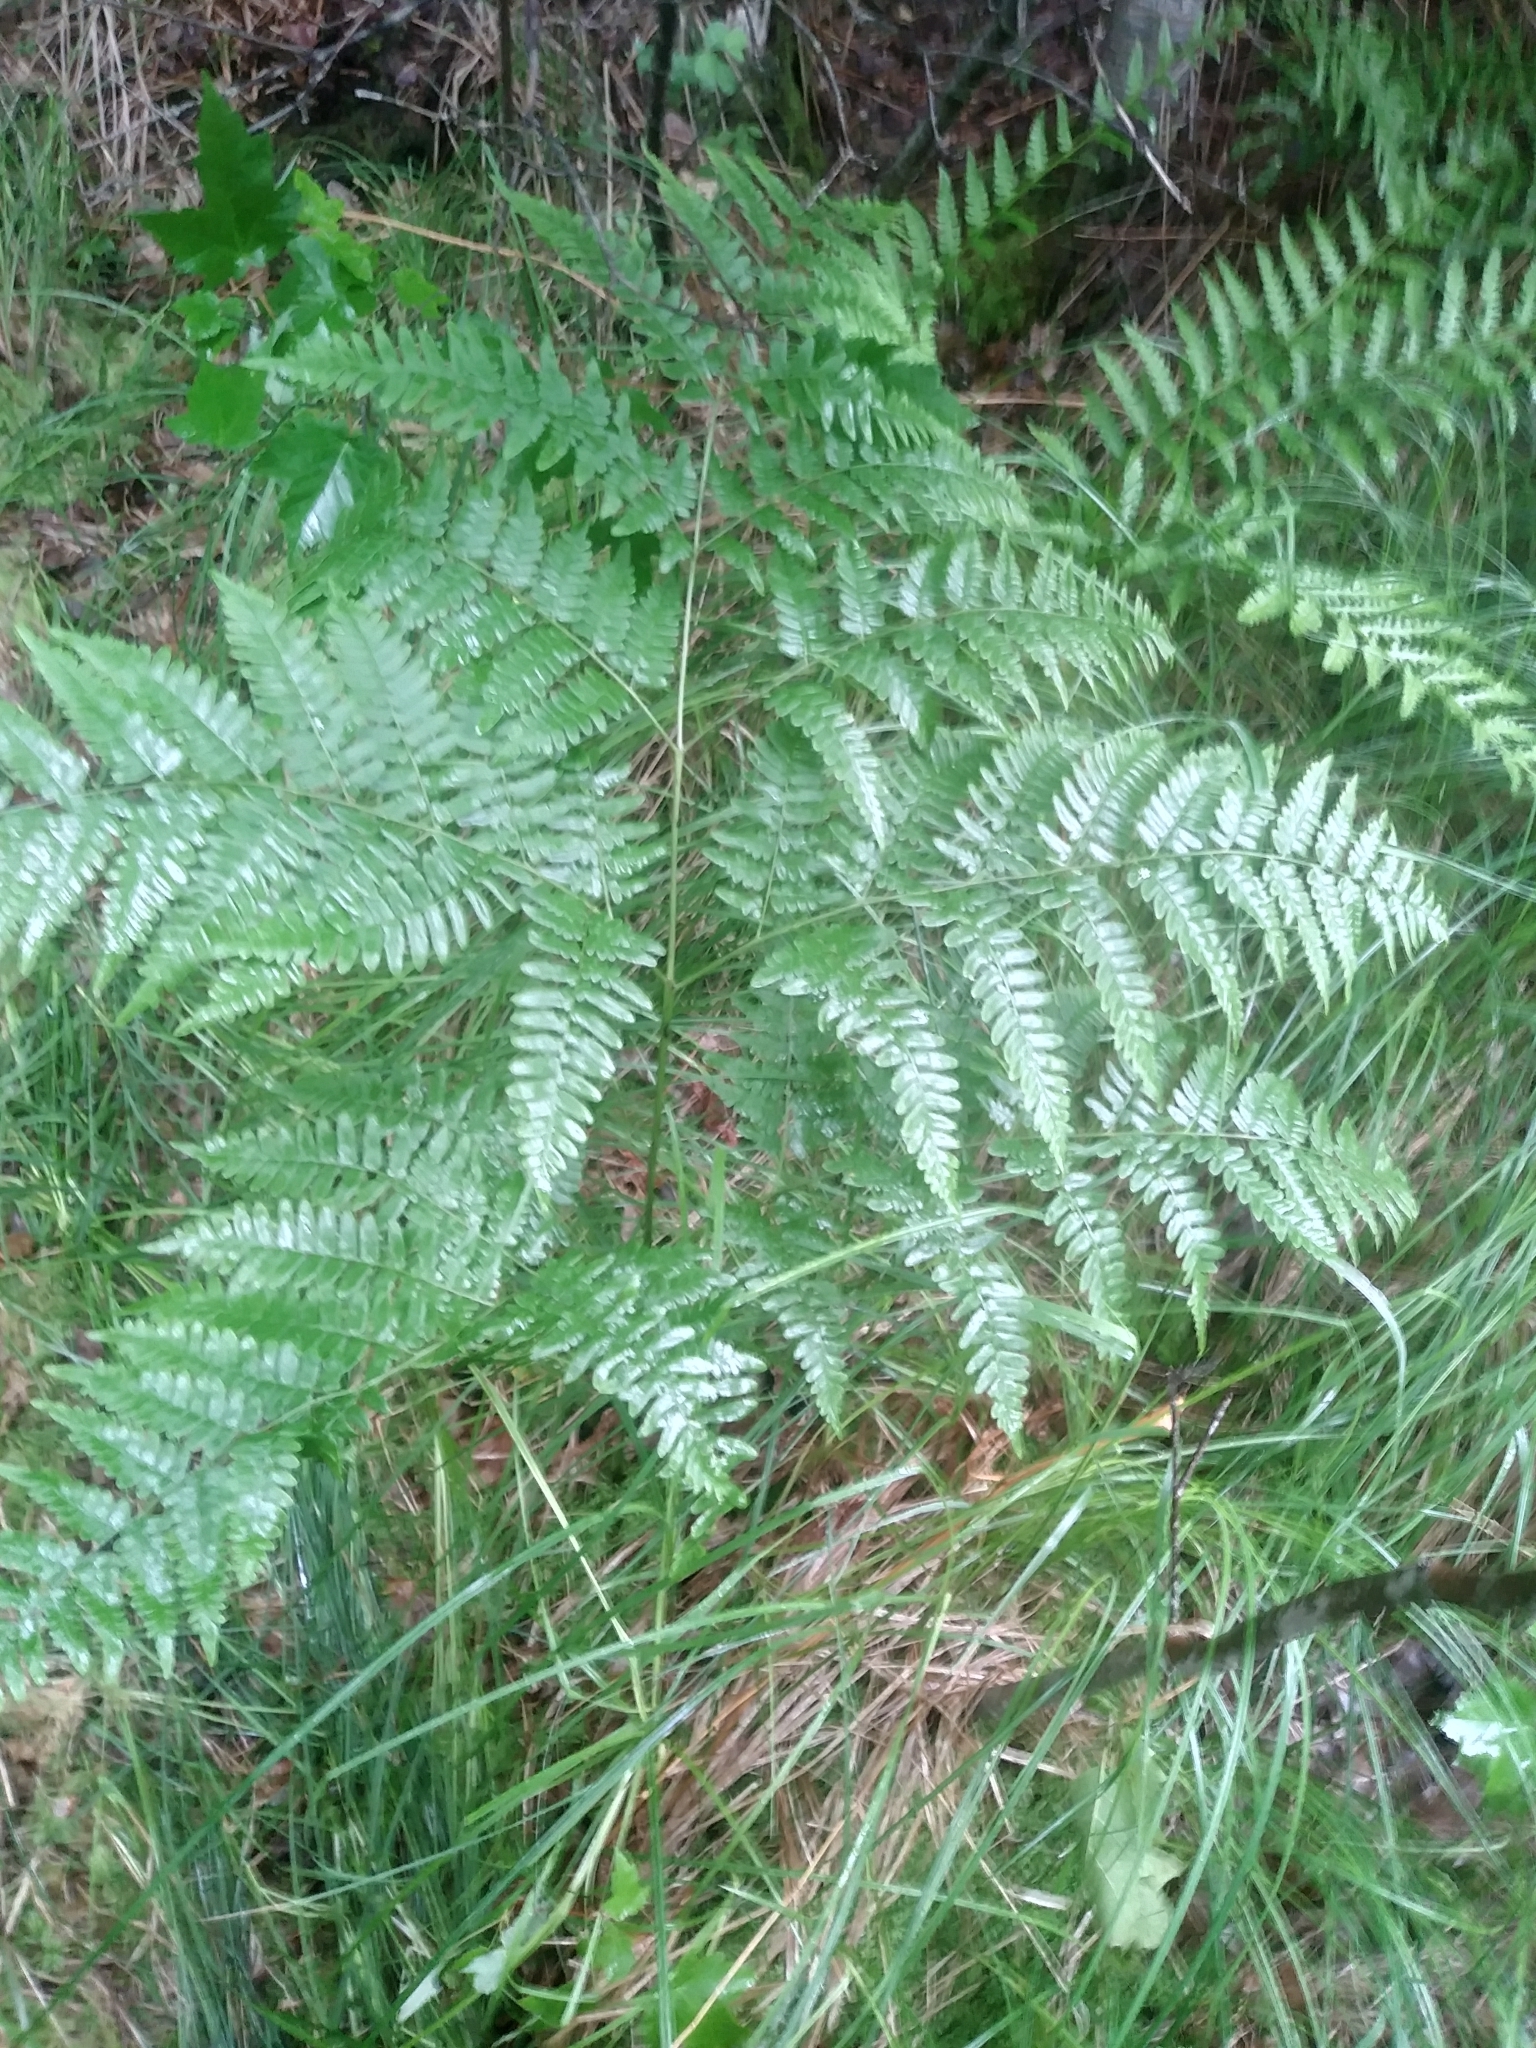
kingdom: Plantae
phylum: Tracheophyta
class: Polypodiopsida
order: Polypodiales
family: Dennstaedtiaceae
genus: Pteridium
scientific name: Pteridium aquilinum
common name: Bracken
